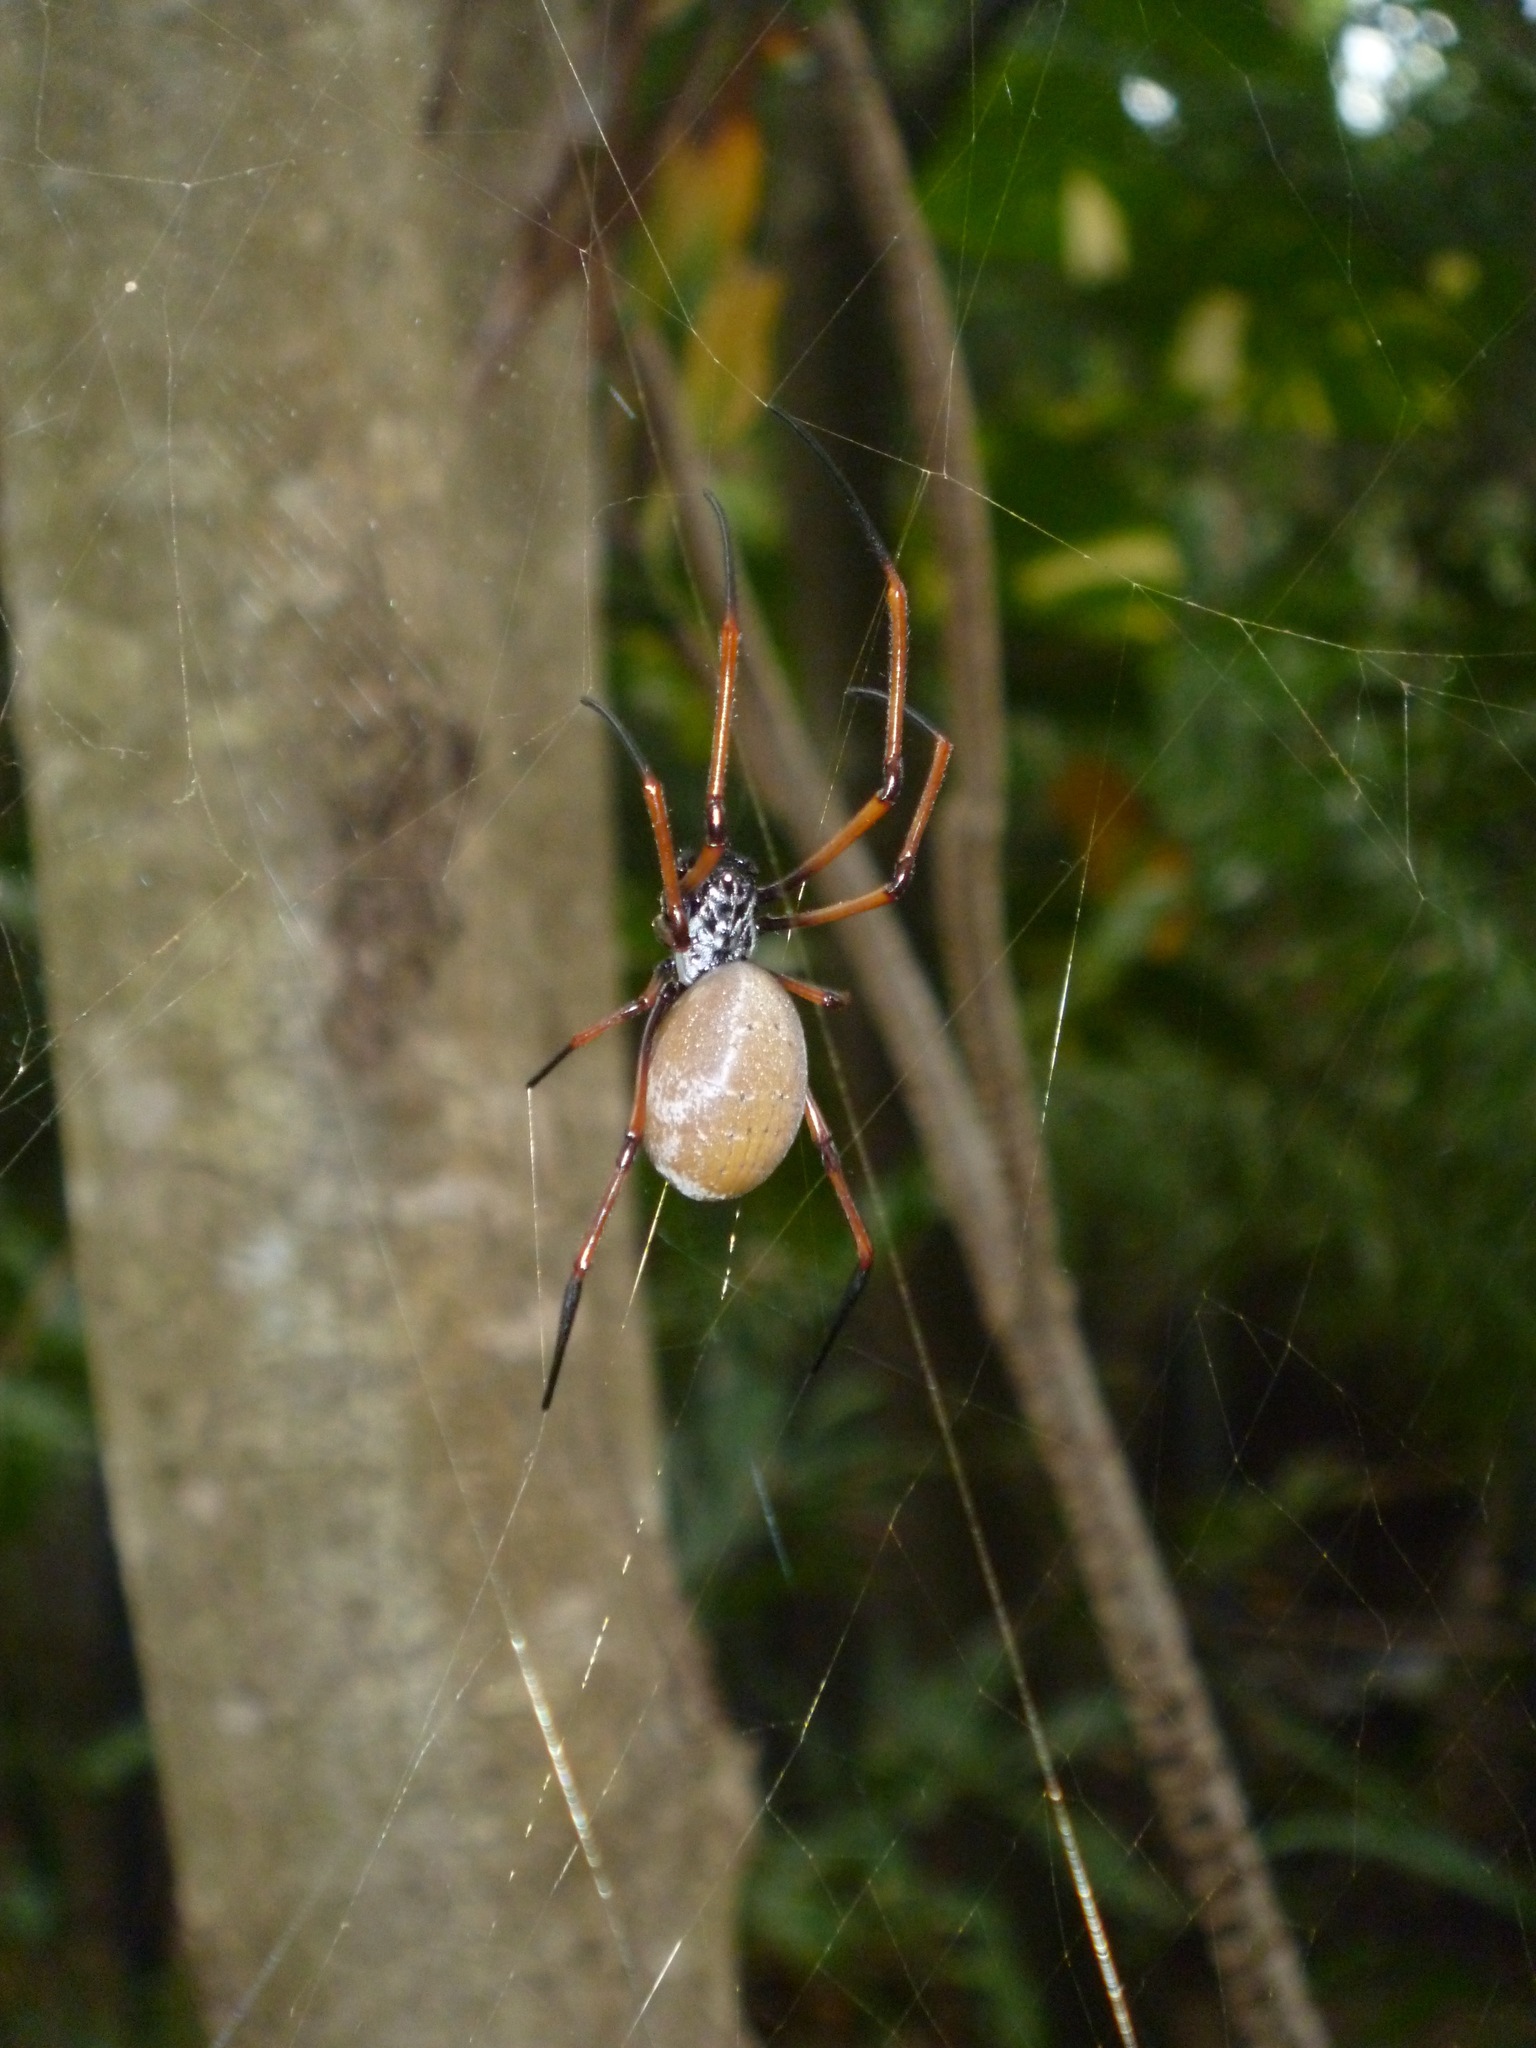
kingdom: Animalia
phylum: Arthropoda
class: Arachnida
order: Araneae
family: Araneidae
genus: Trichonephila
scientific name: Trichonephila plumipes
